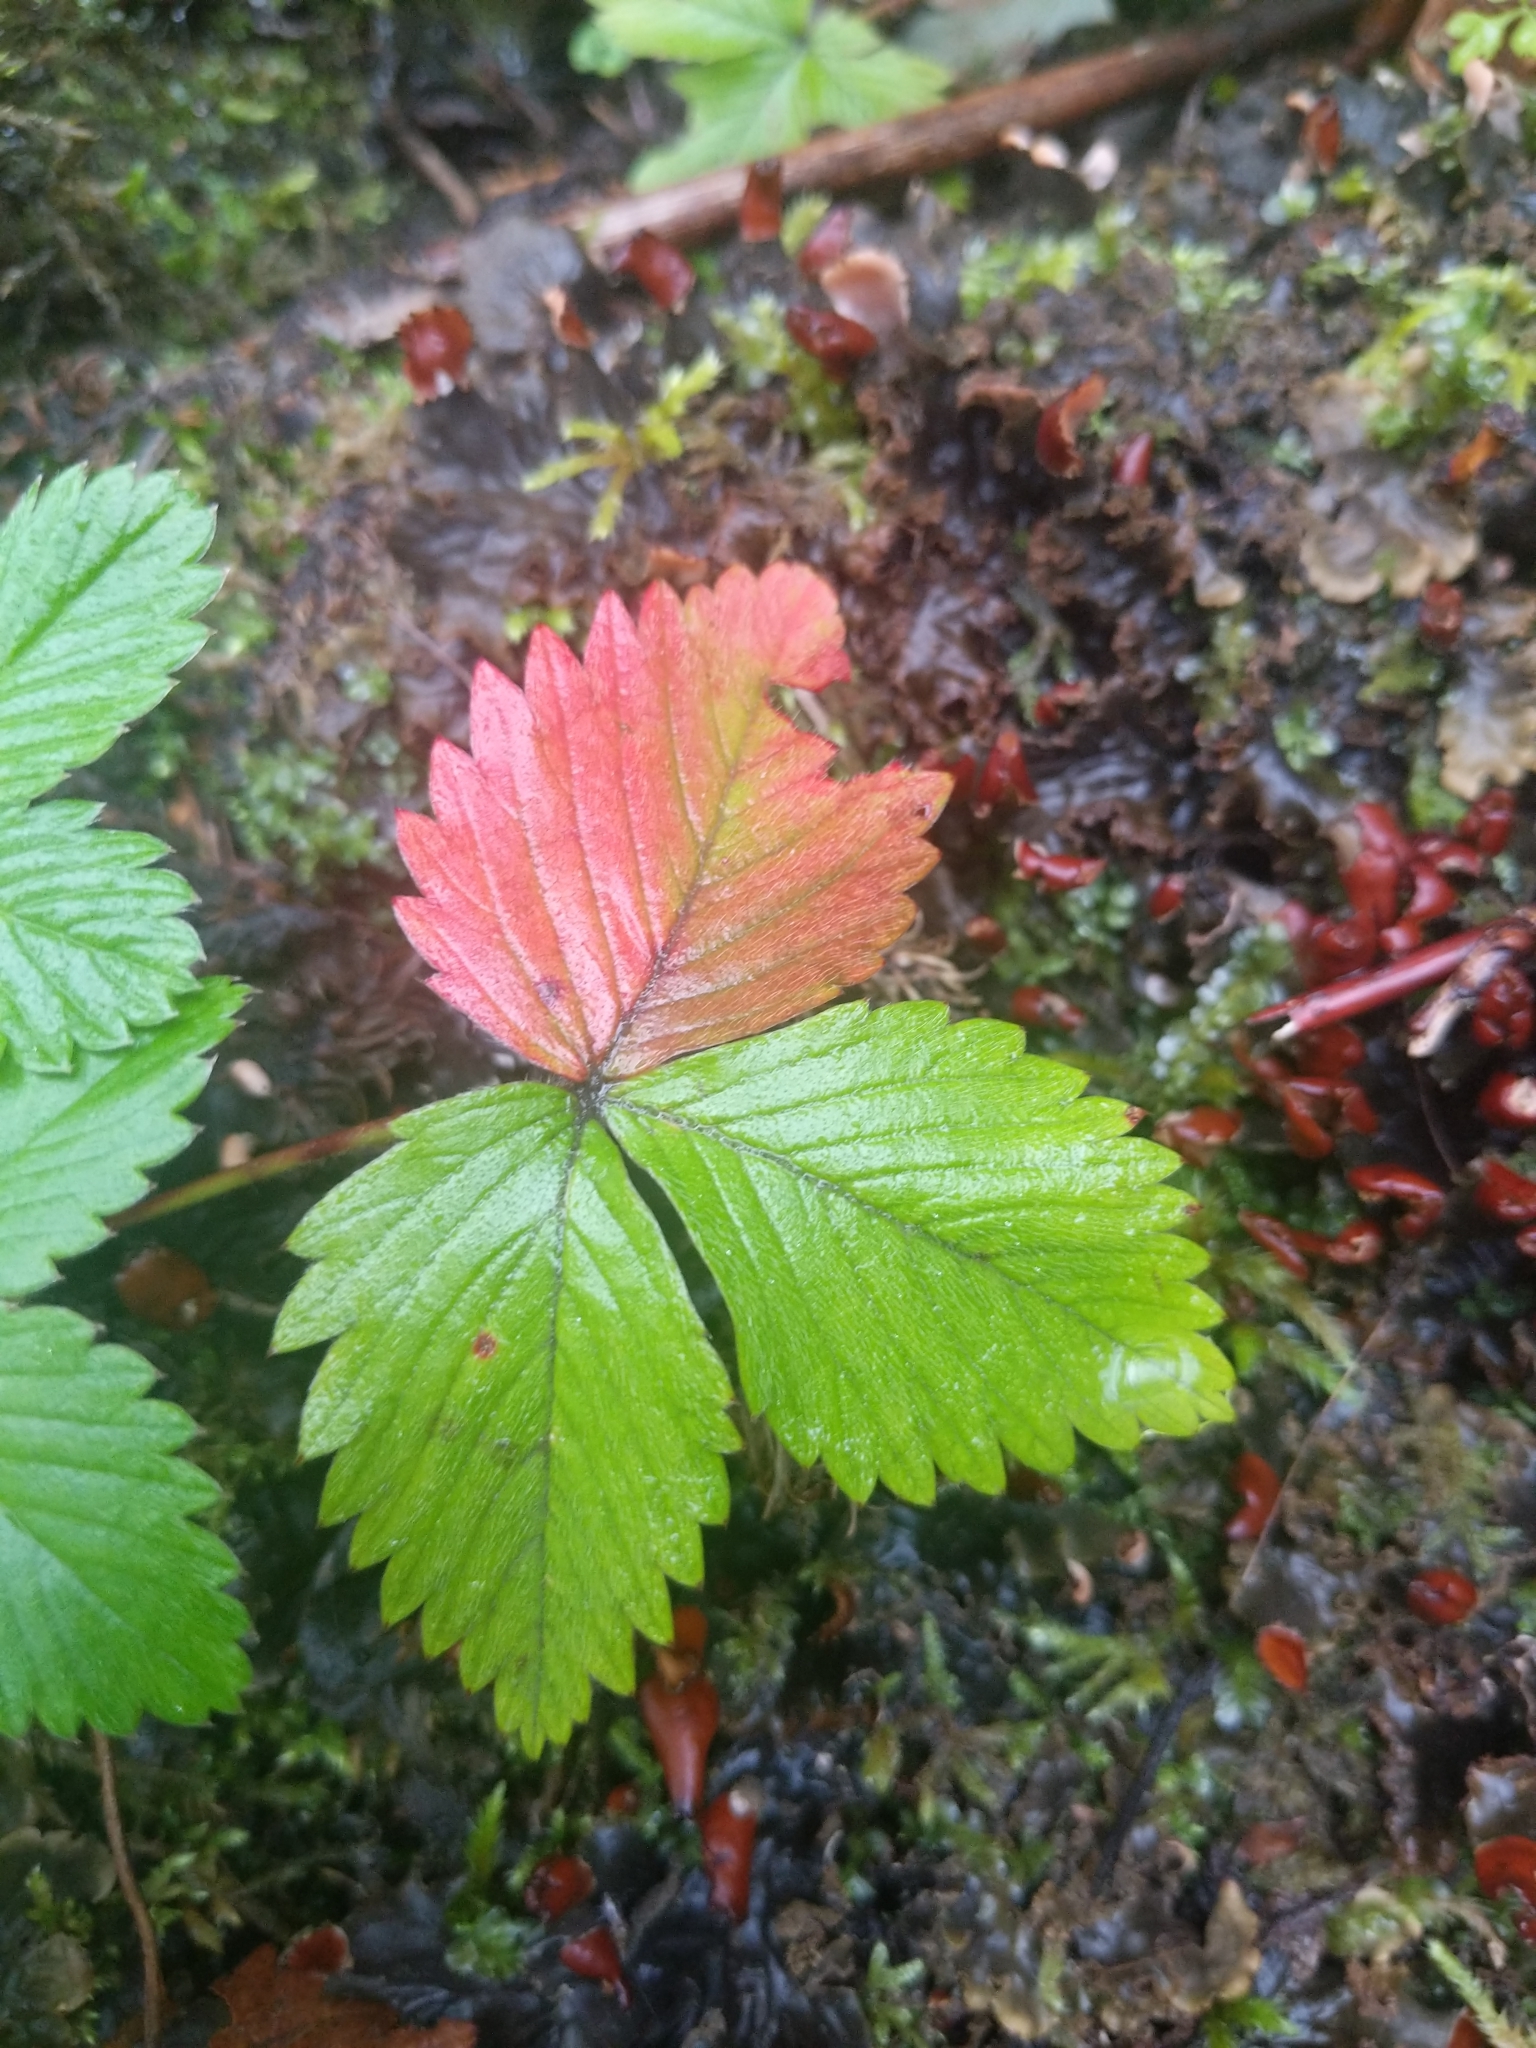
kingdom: Plantae
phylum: Tracheophyta
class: Magnoliopsida
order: Rosales
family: Rosaceae
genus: Fragaria
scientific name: Fragaria vesca
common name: Wild strawberry
